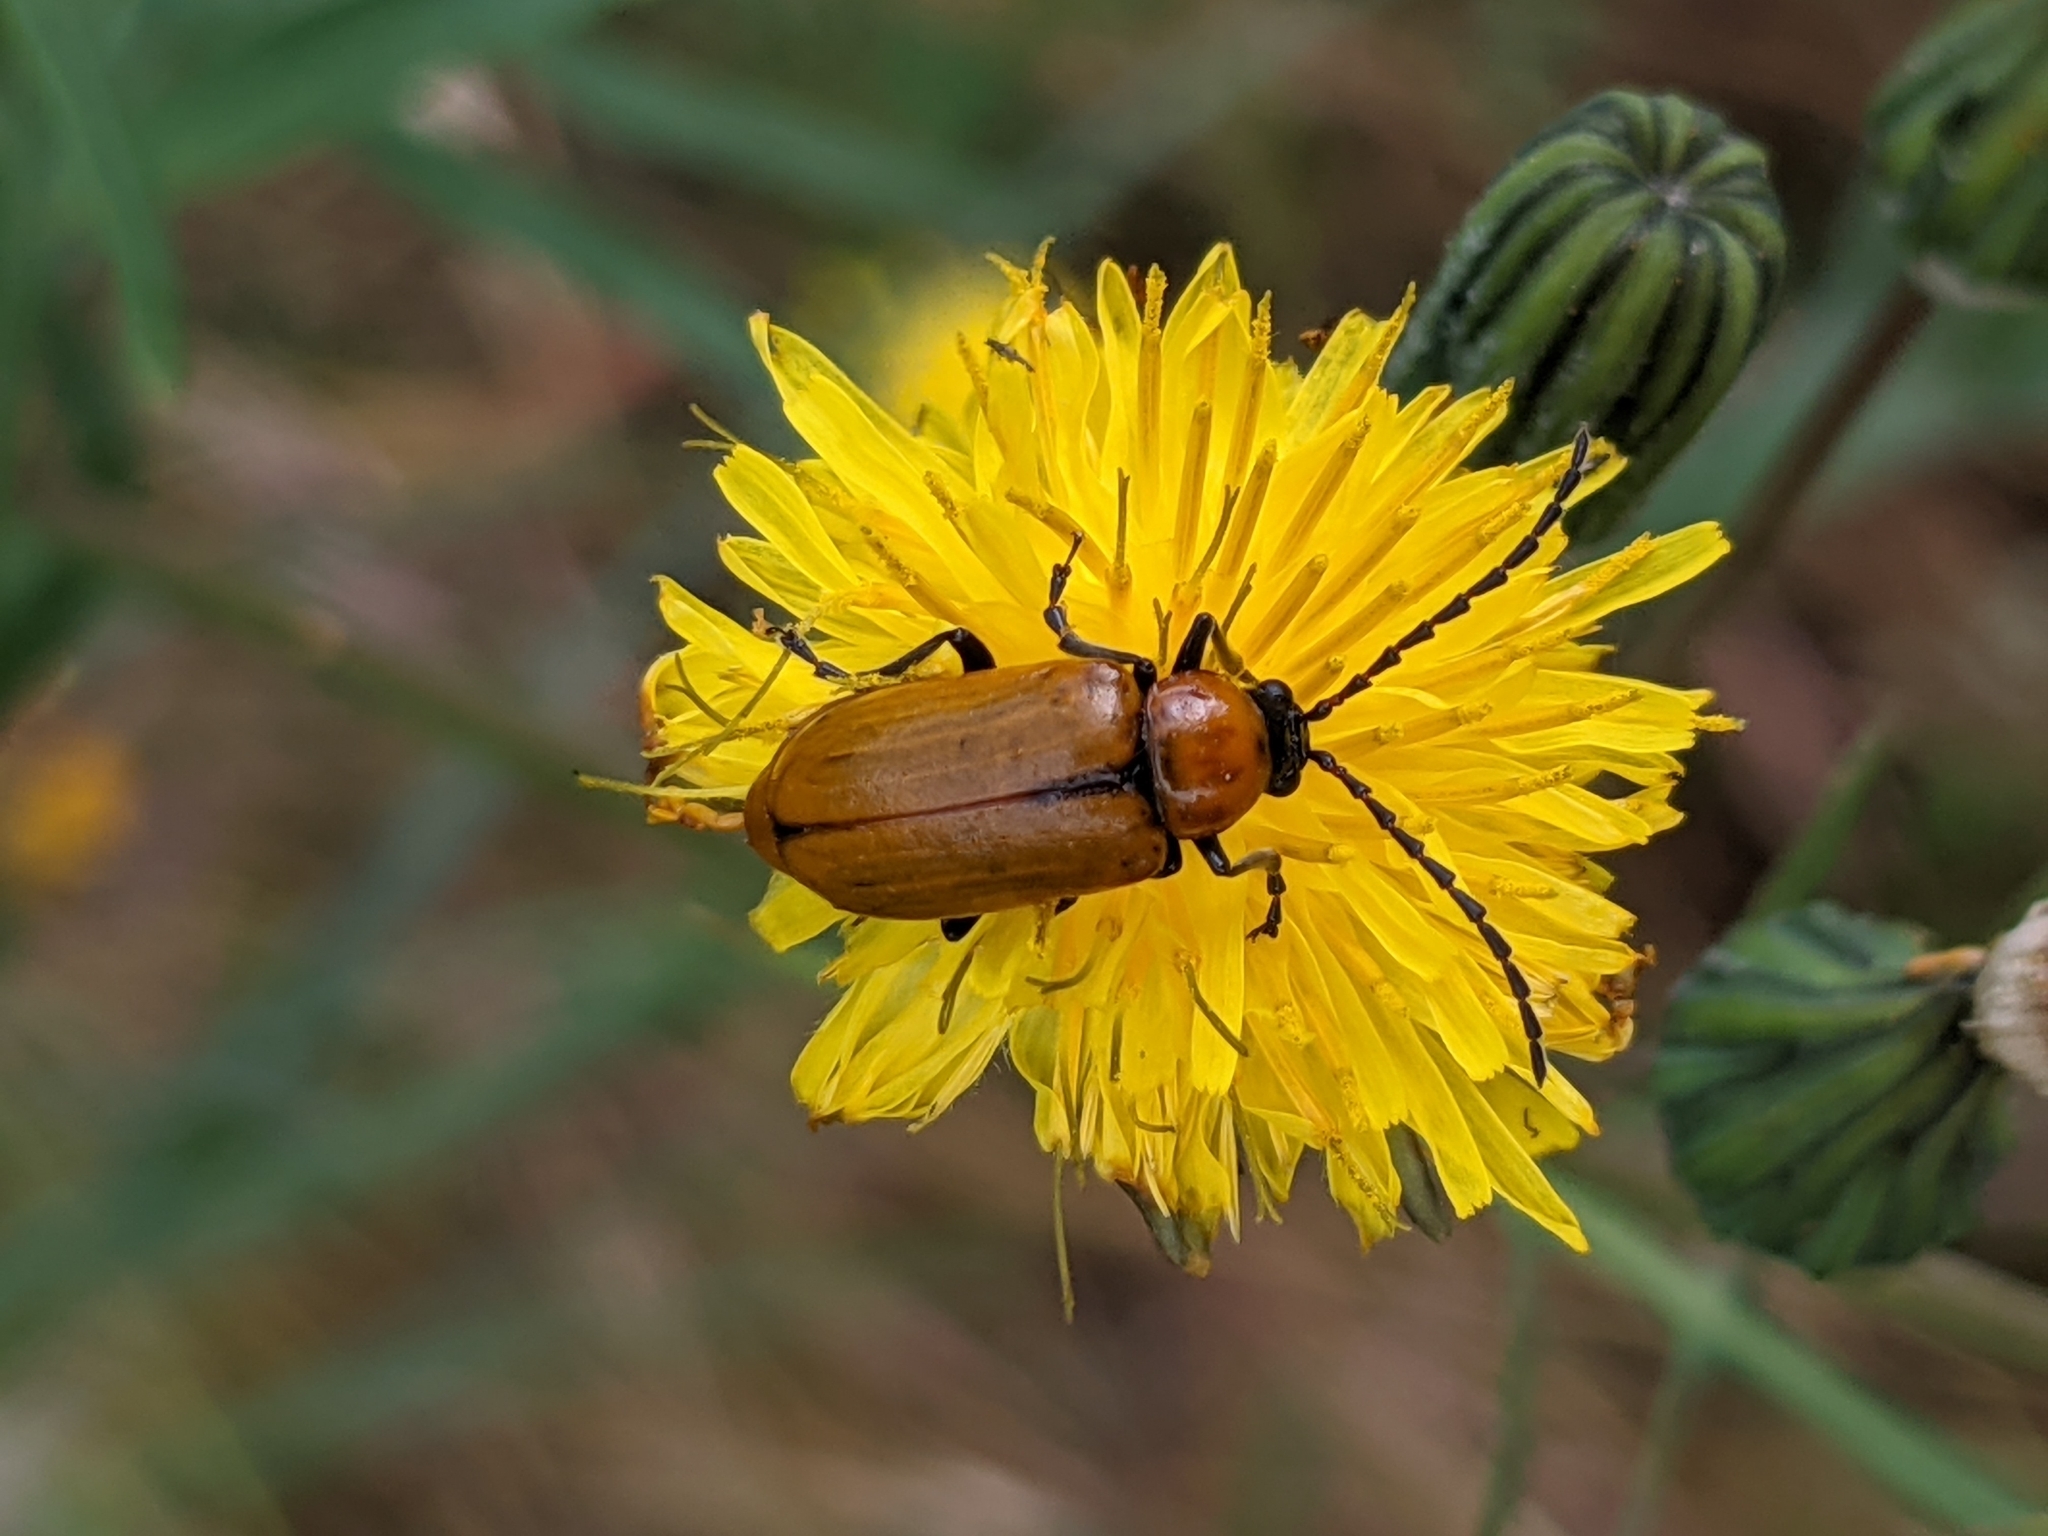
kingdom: Animalia
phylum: Arthropoda
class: Insecta
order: Coleoptera
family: Chrysomelidae
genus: Exosoma
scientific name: Exosoma lusitanicum
